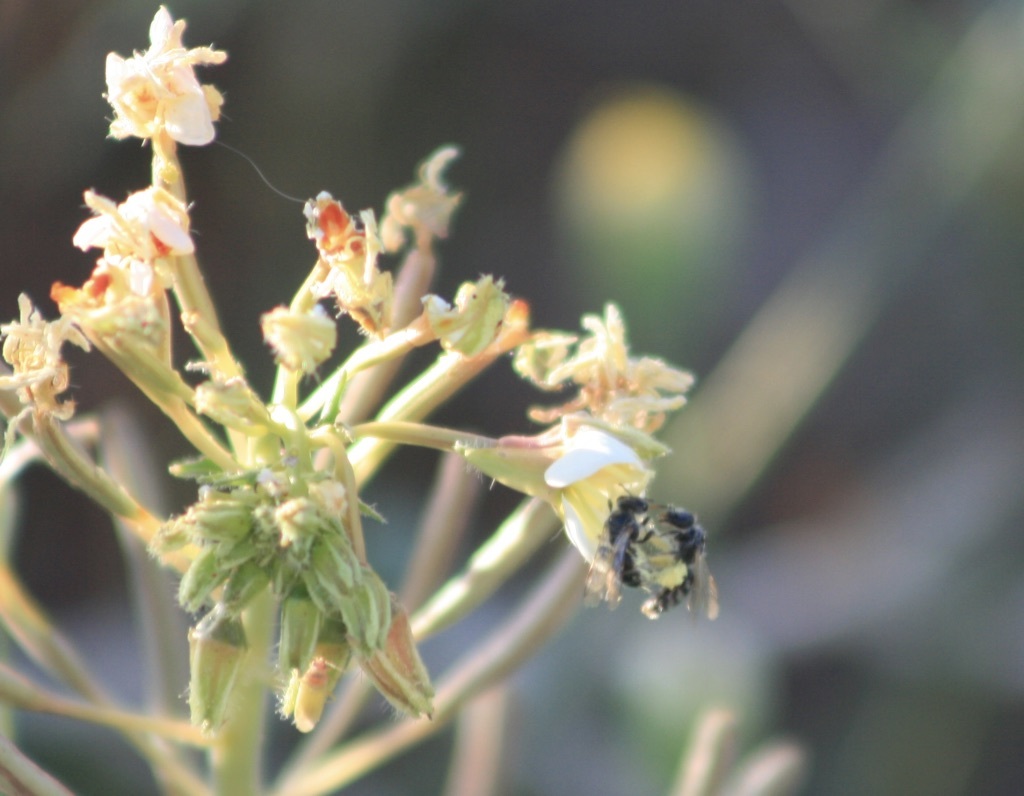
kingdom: Animalia
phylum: Arthropoda
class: Insecta
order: Hymenoptera
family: Andrenidae
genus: Perdita
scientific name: Perdita
